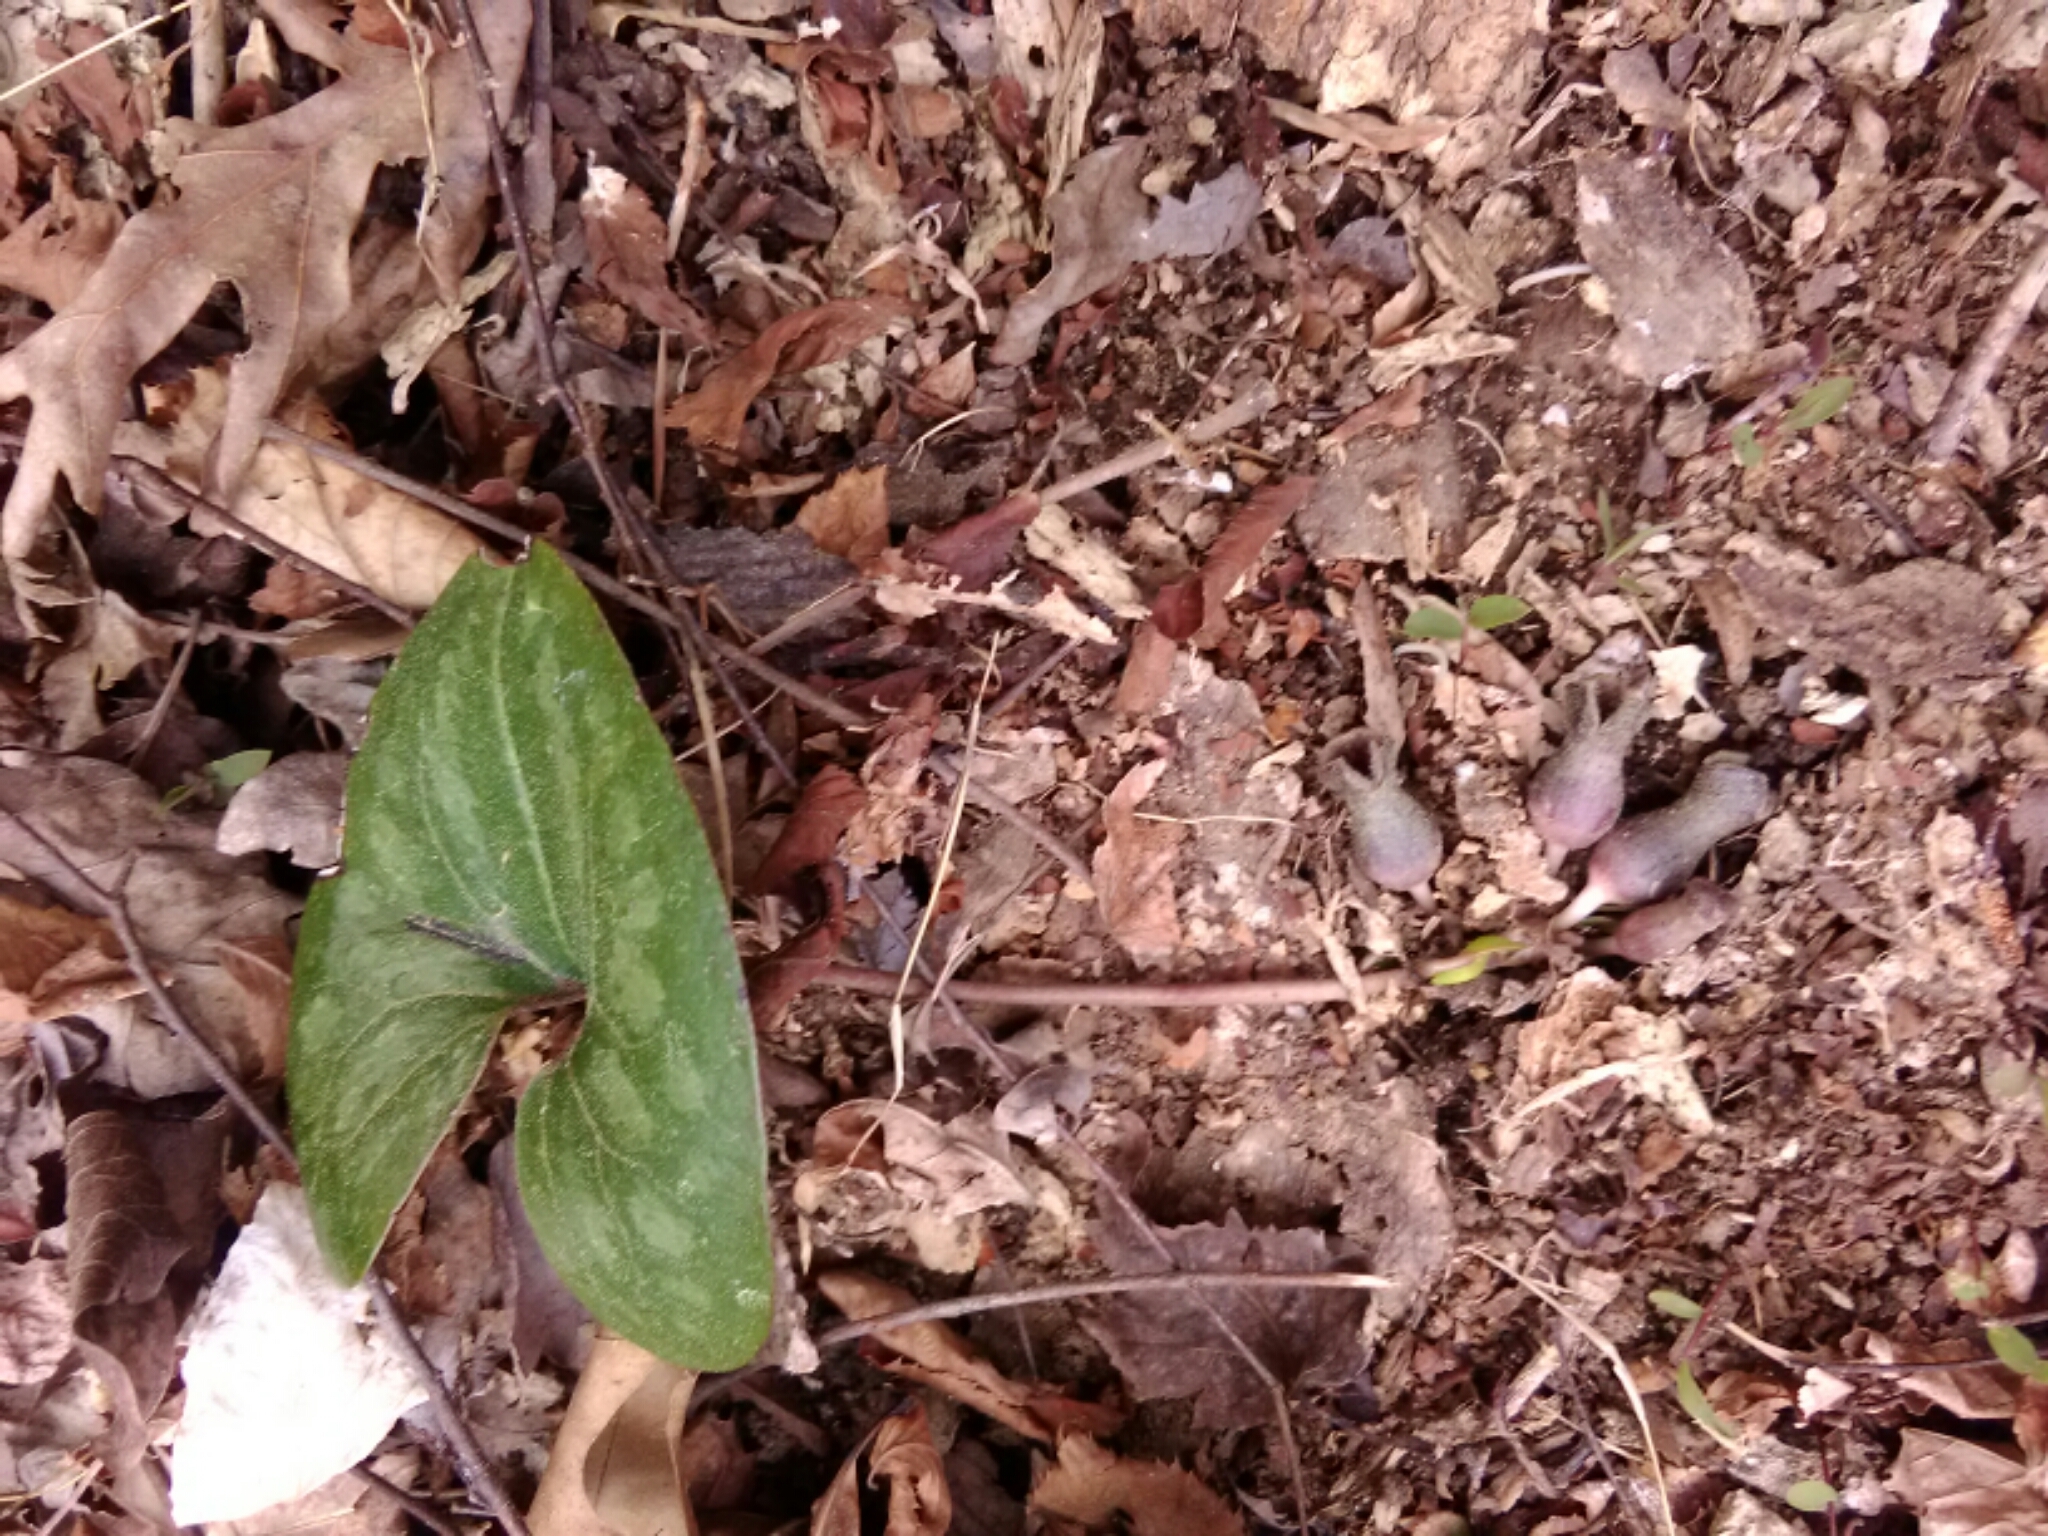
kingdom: Plantae
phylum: Tracheophyta
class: Magnoliopsida
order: Piperales
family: Aristolochiaceae
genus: Hexastylis
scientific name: Hexastylis arifolia
